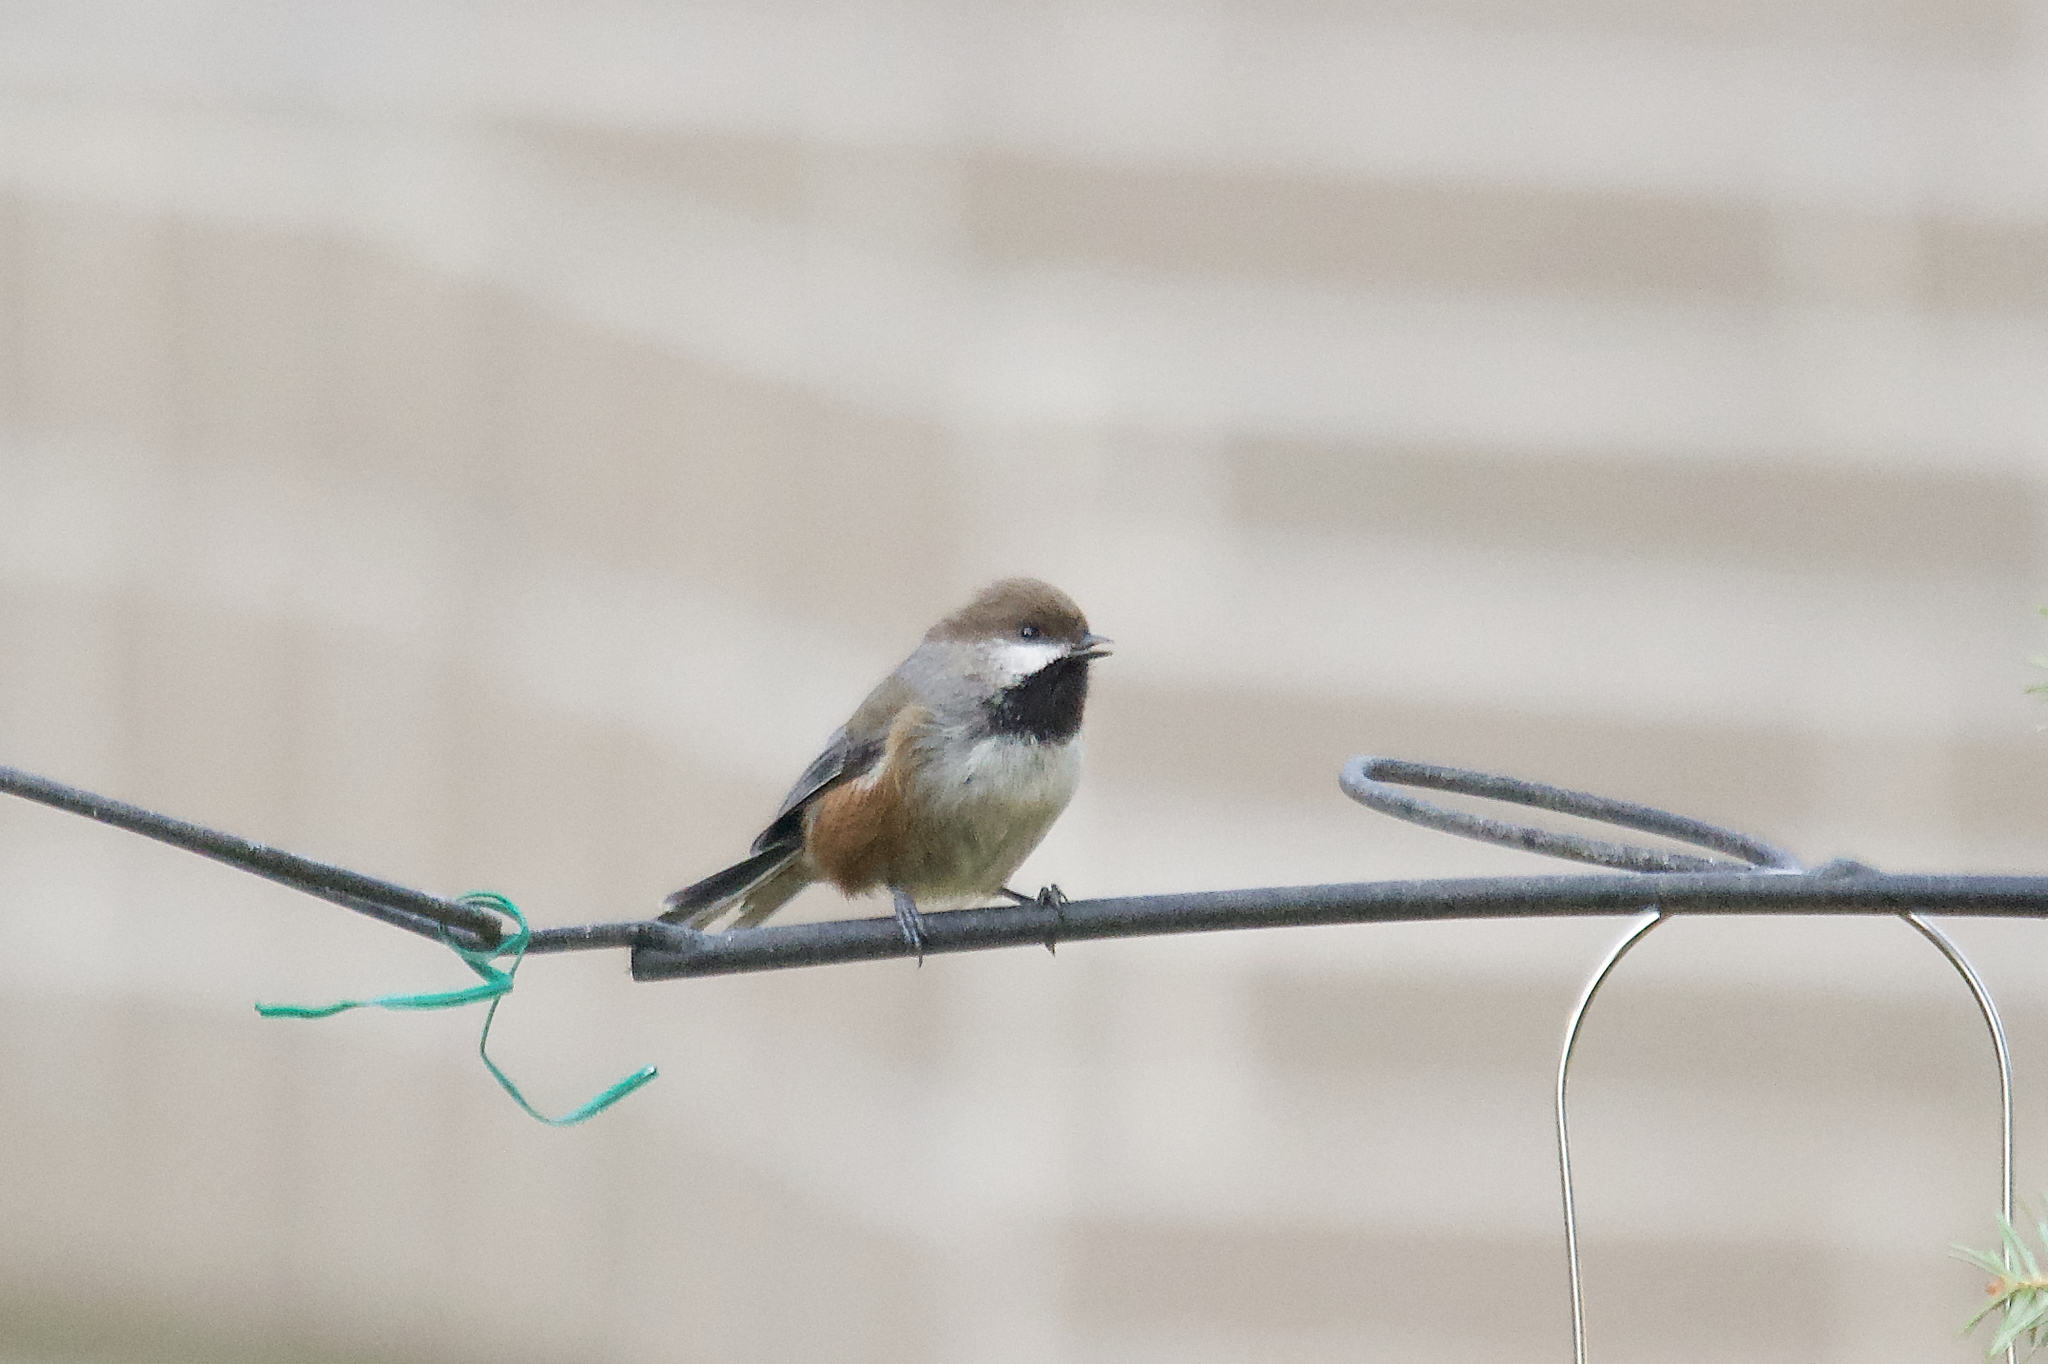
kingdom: Animalia
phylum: Chordata
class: Aves
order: Passeriformes
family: Paridae
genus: Poecile
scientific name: Poecile hudsonicus
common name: Boreal chickadee
